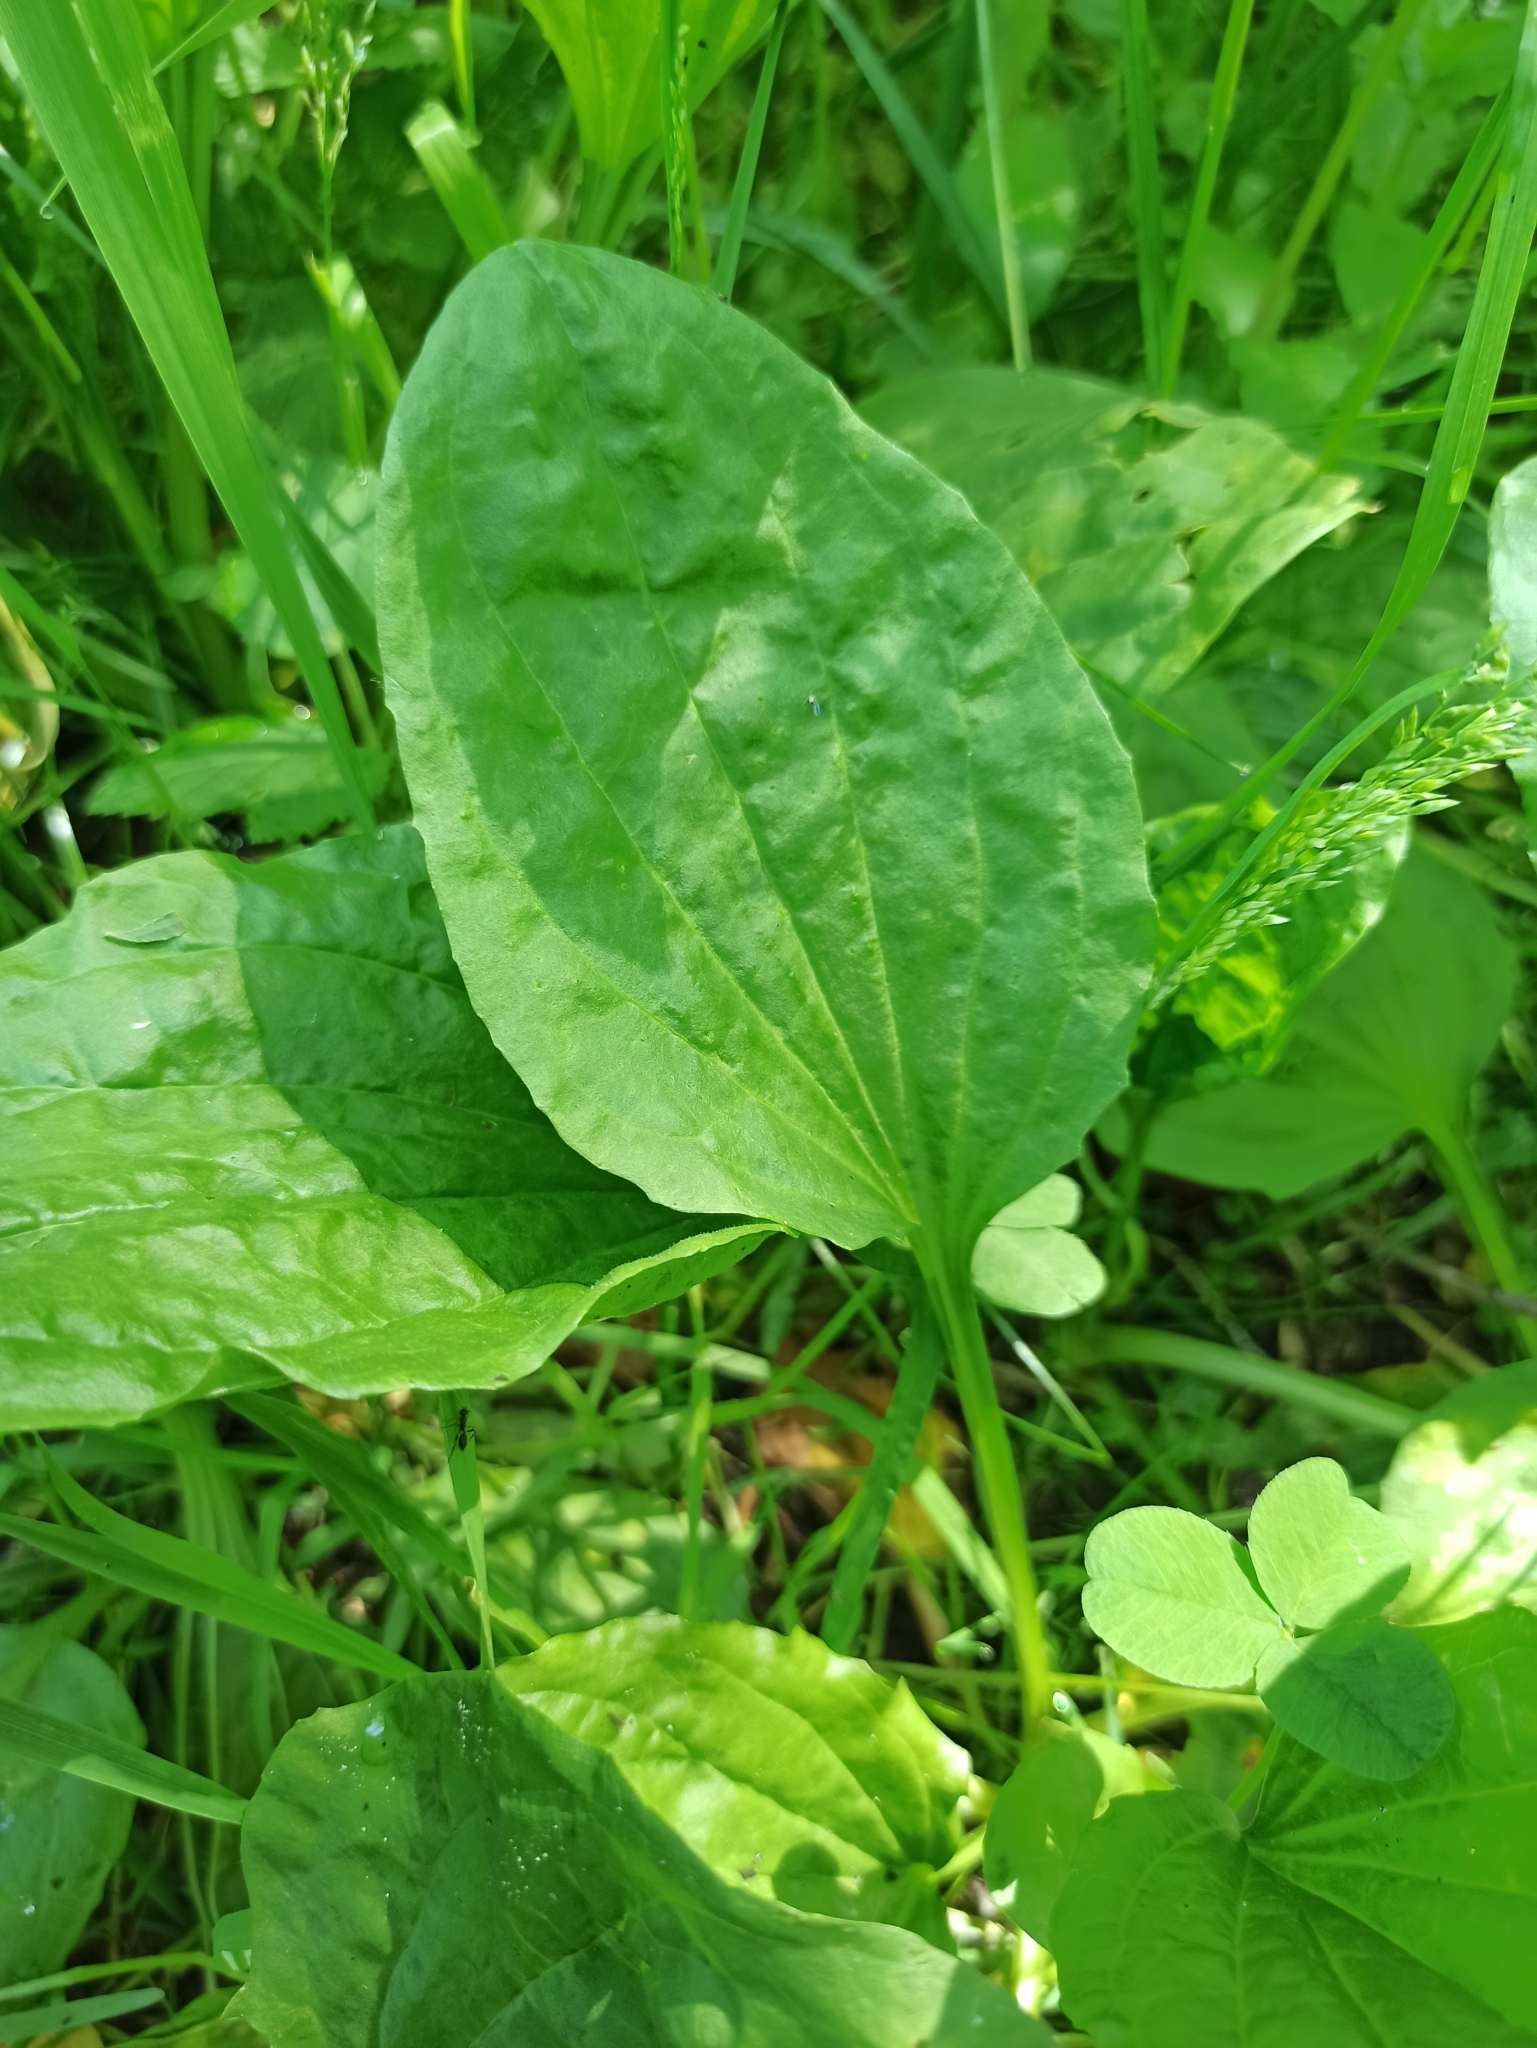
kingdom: Plantae
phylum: Tracheophyta
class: Magnoliopsida
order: Lamiales
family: Plantaginaceae
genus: Plantago
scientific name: Plantago major
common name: Common plantain
